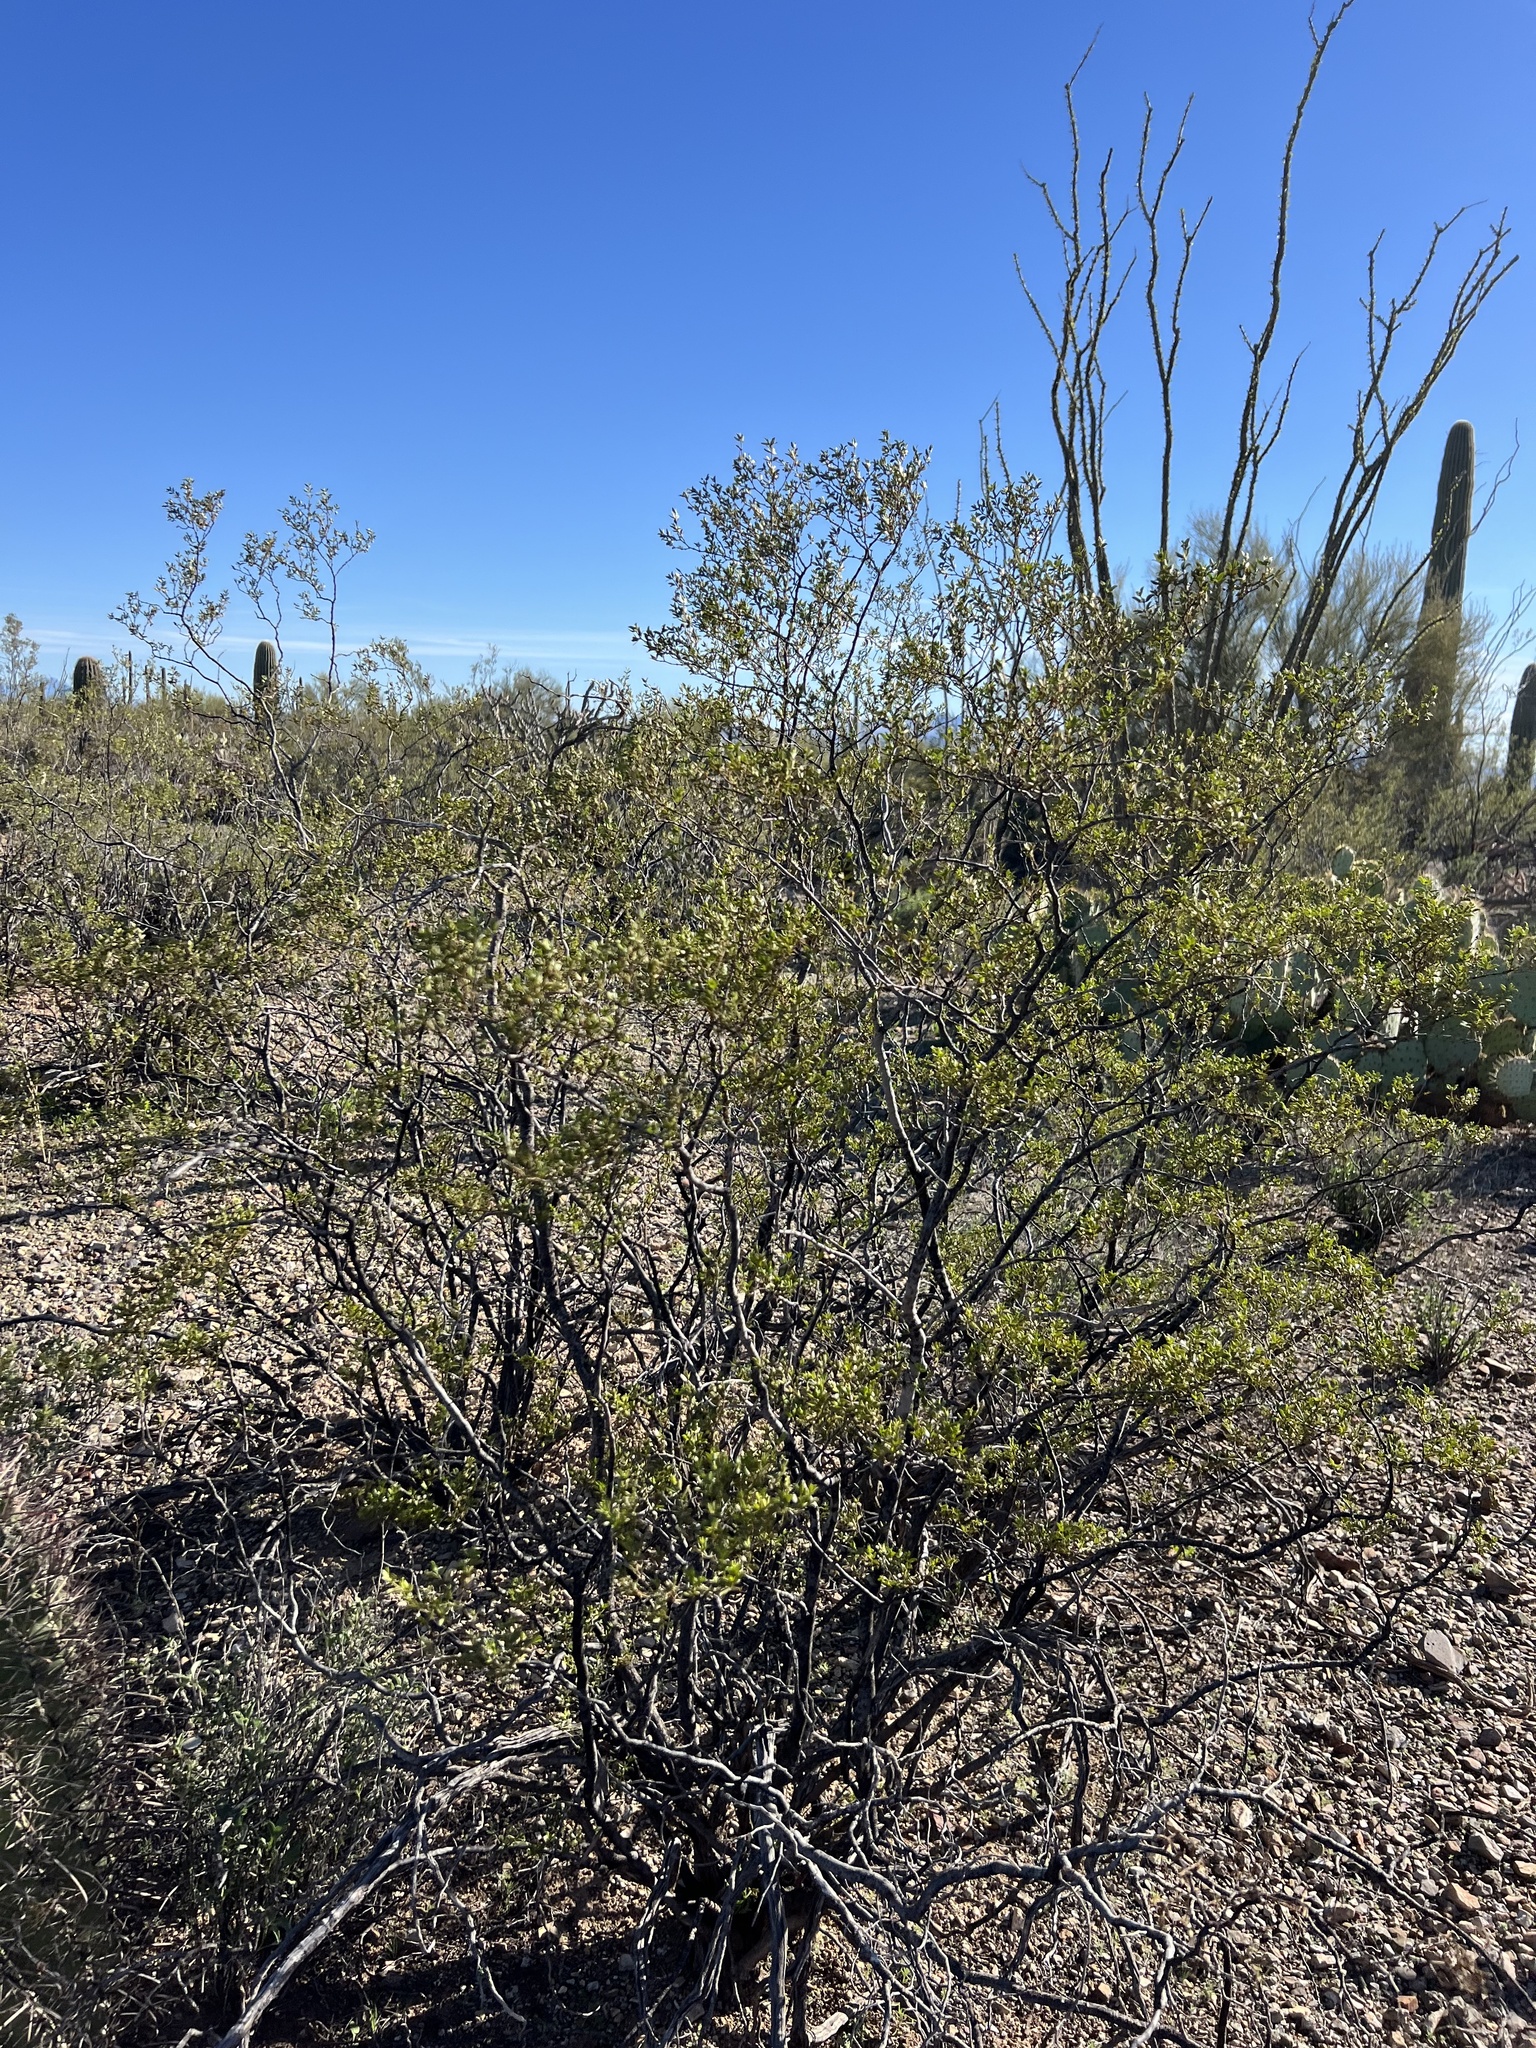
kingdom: Plantae
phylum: Tracheophyta
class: Magnoliopsida
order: Zygophyllales
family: Zygophyllaceae
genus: Larrea
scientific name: Larrea tridentata
